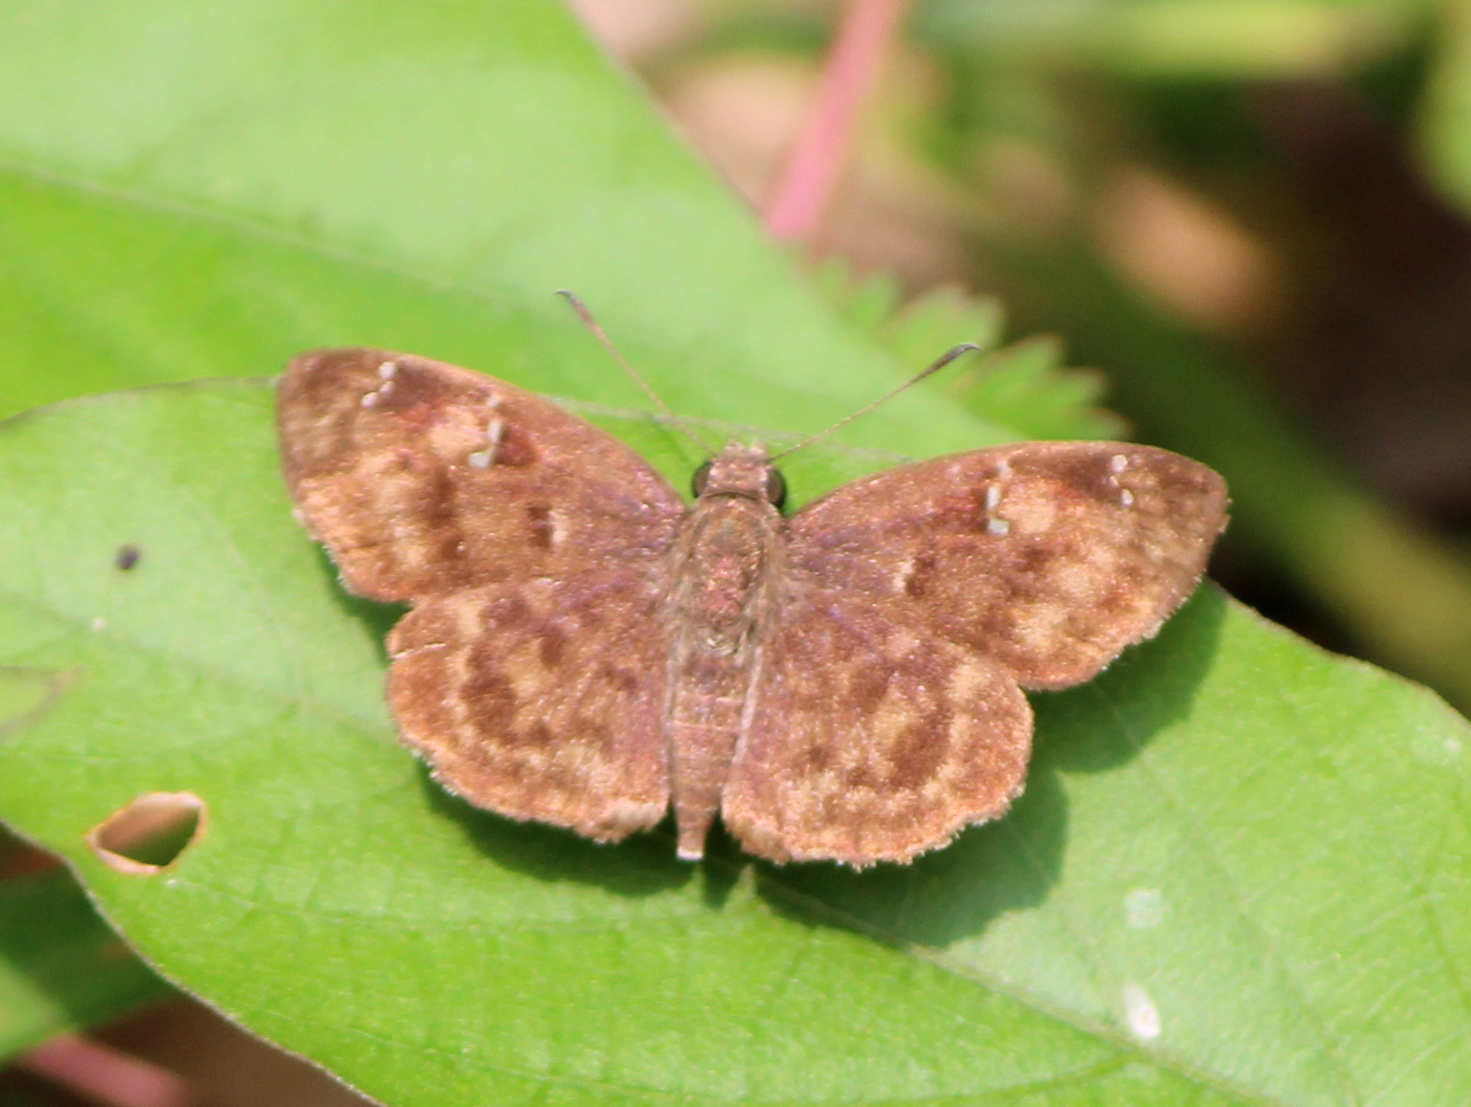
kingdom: Animalia
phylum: Arthropoda
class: Insecta
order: Lepidoptera
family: Hesperiidae
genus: Sarangesa
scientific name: Sarangesa dasahara
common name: Common small flat
